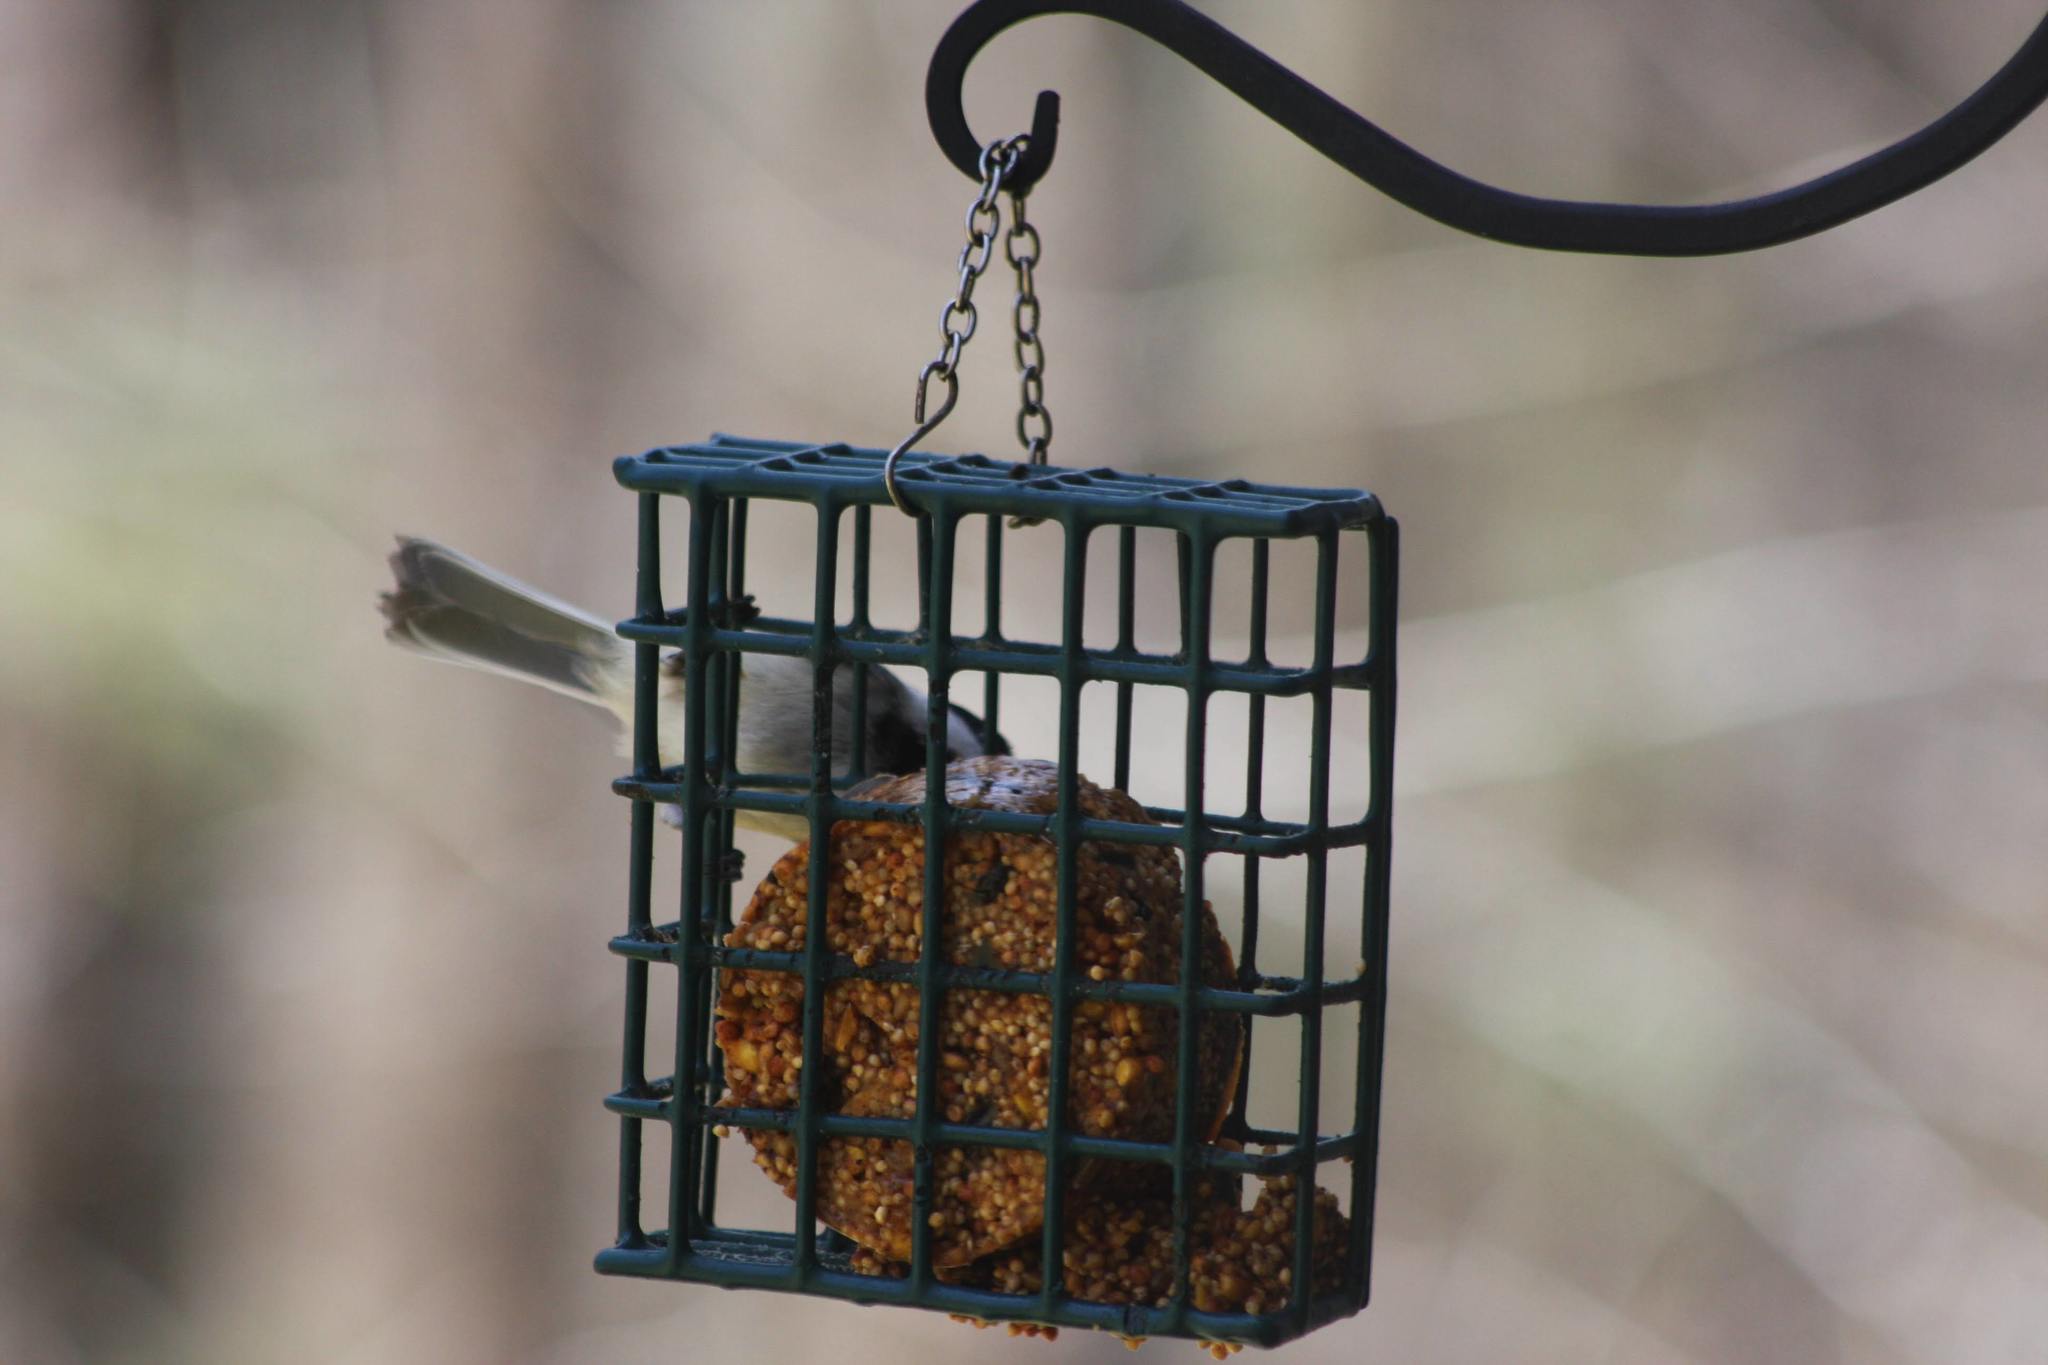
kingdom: Animalia
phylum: Chordata
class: Aves
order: Passeriformes
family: Paridae
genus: Poecile
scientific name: Poecile atricapillus
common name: Black-capped chickadee
